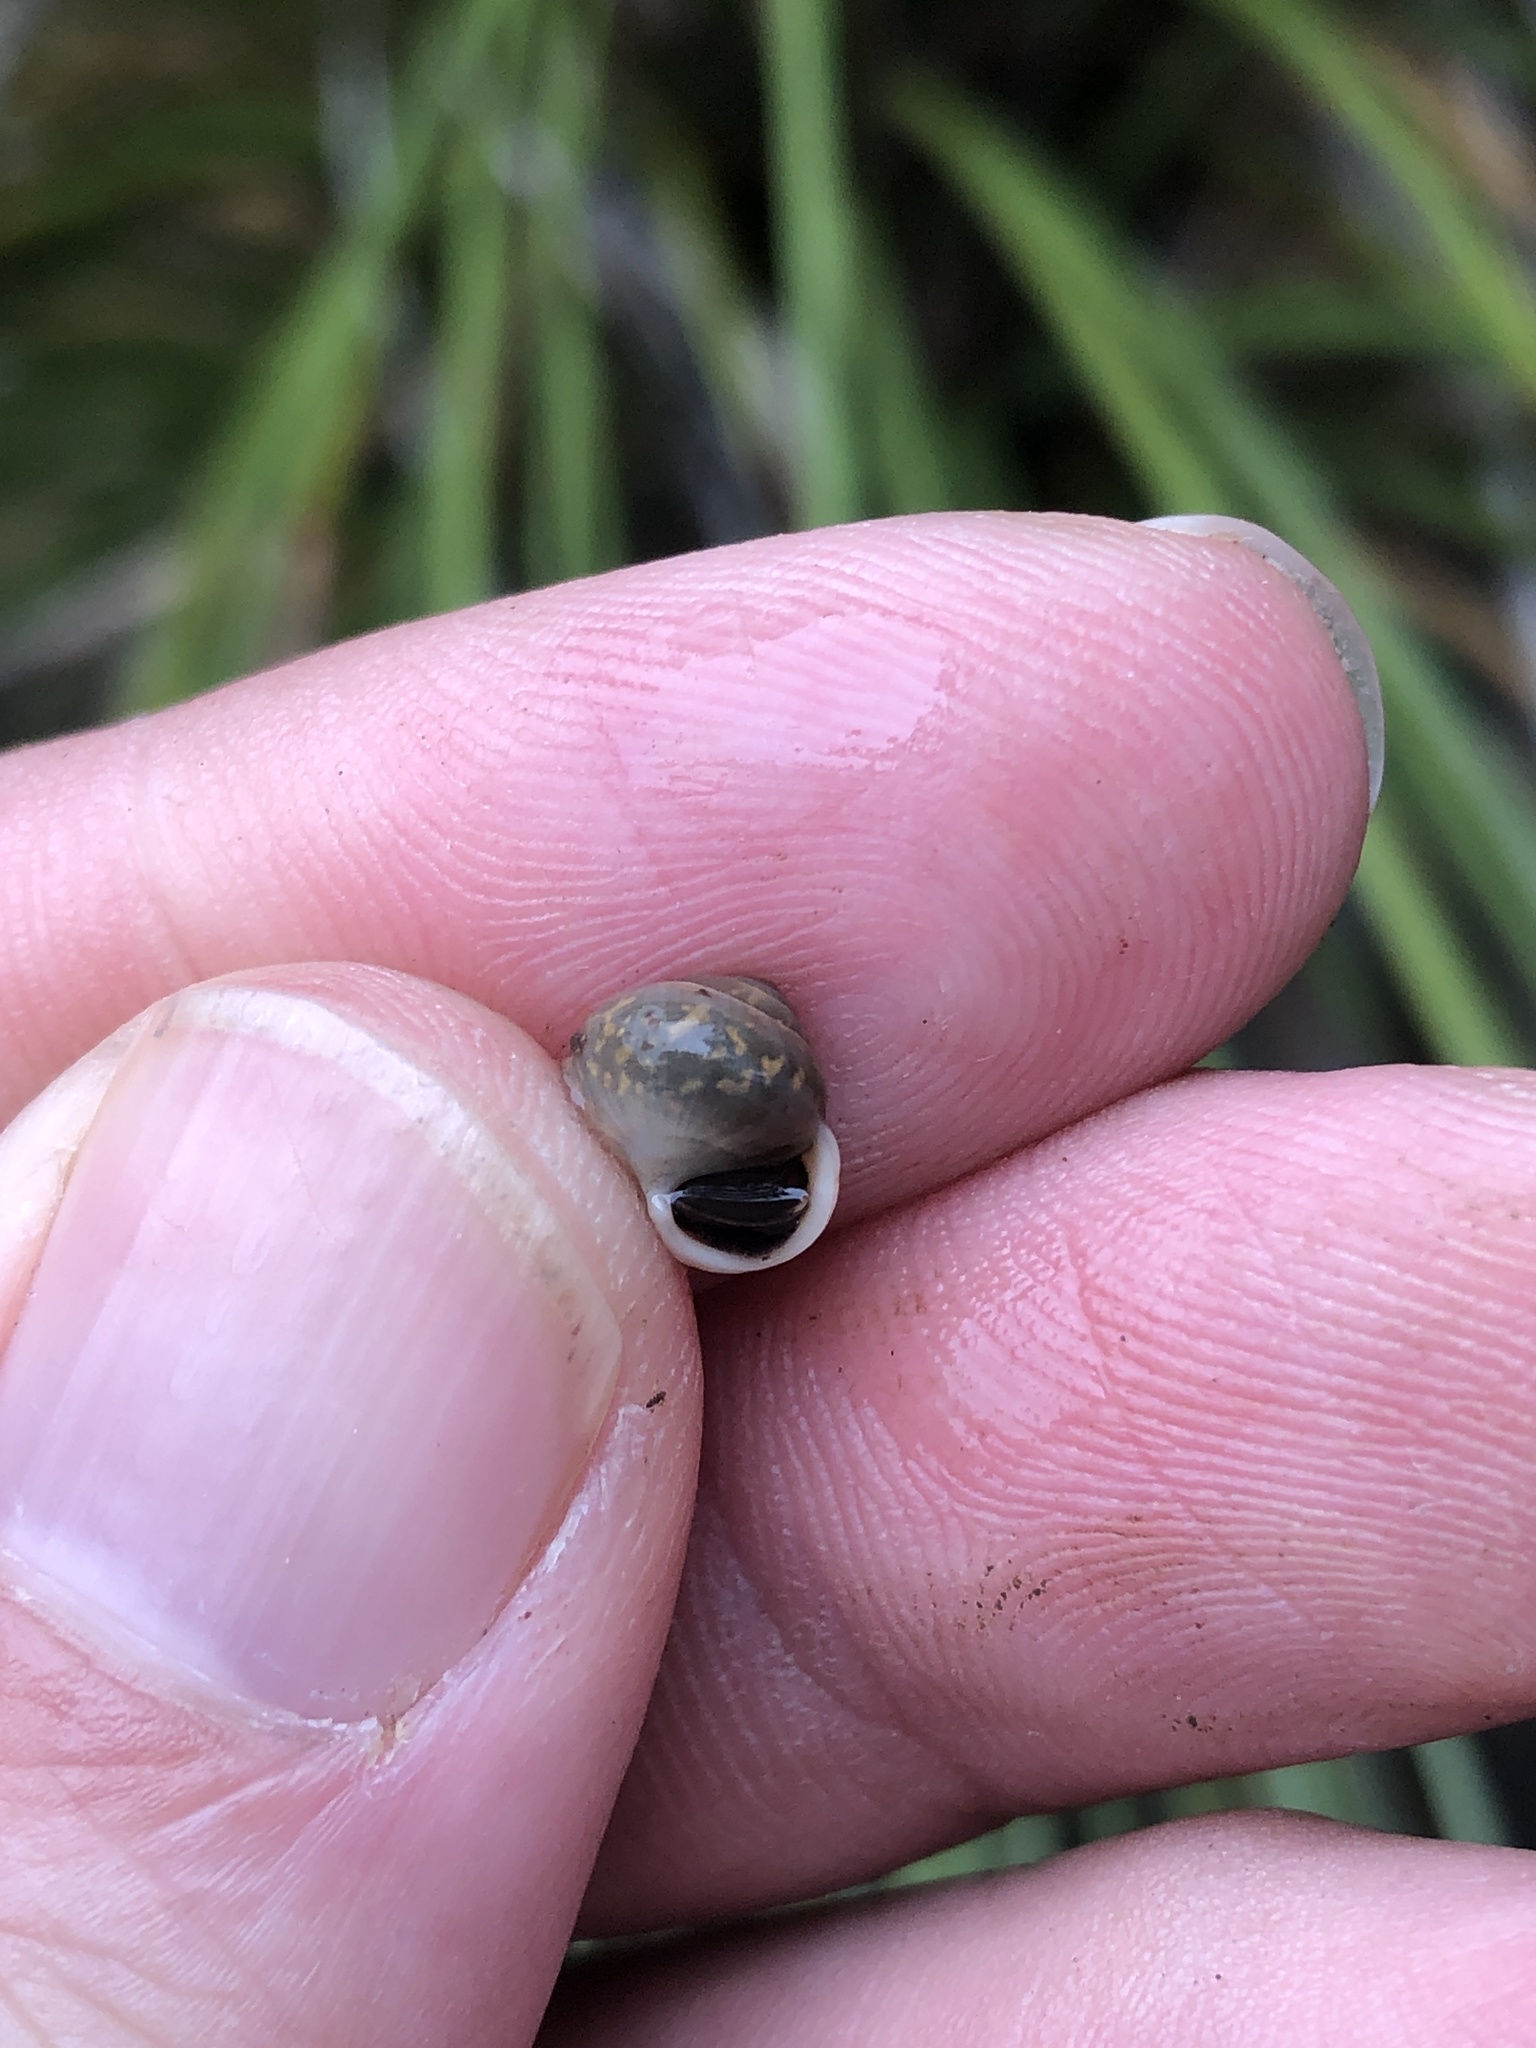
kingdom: Animalia
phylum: Mollusca
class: Gastropoda
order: Cycloneritida
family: Helicinidae
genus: Helicina
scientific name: Helicina orbiculata
